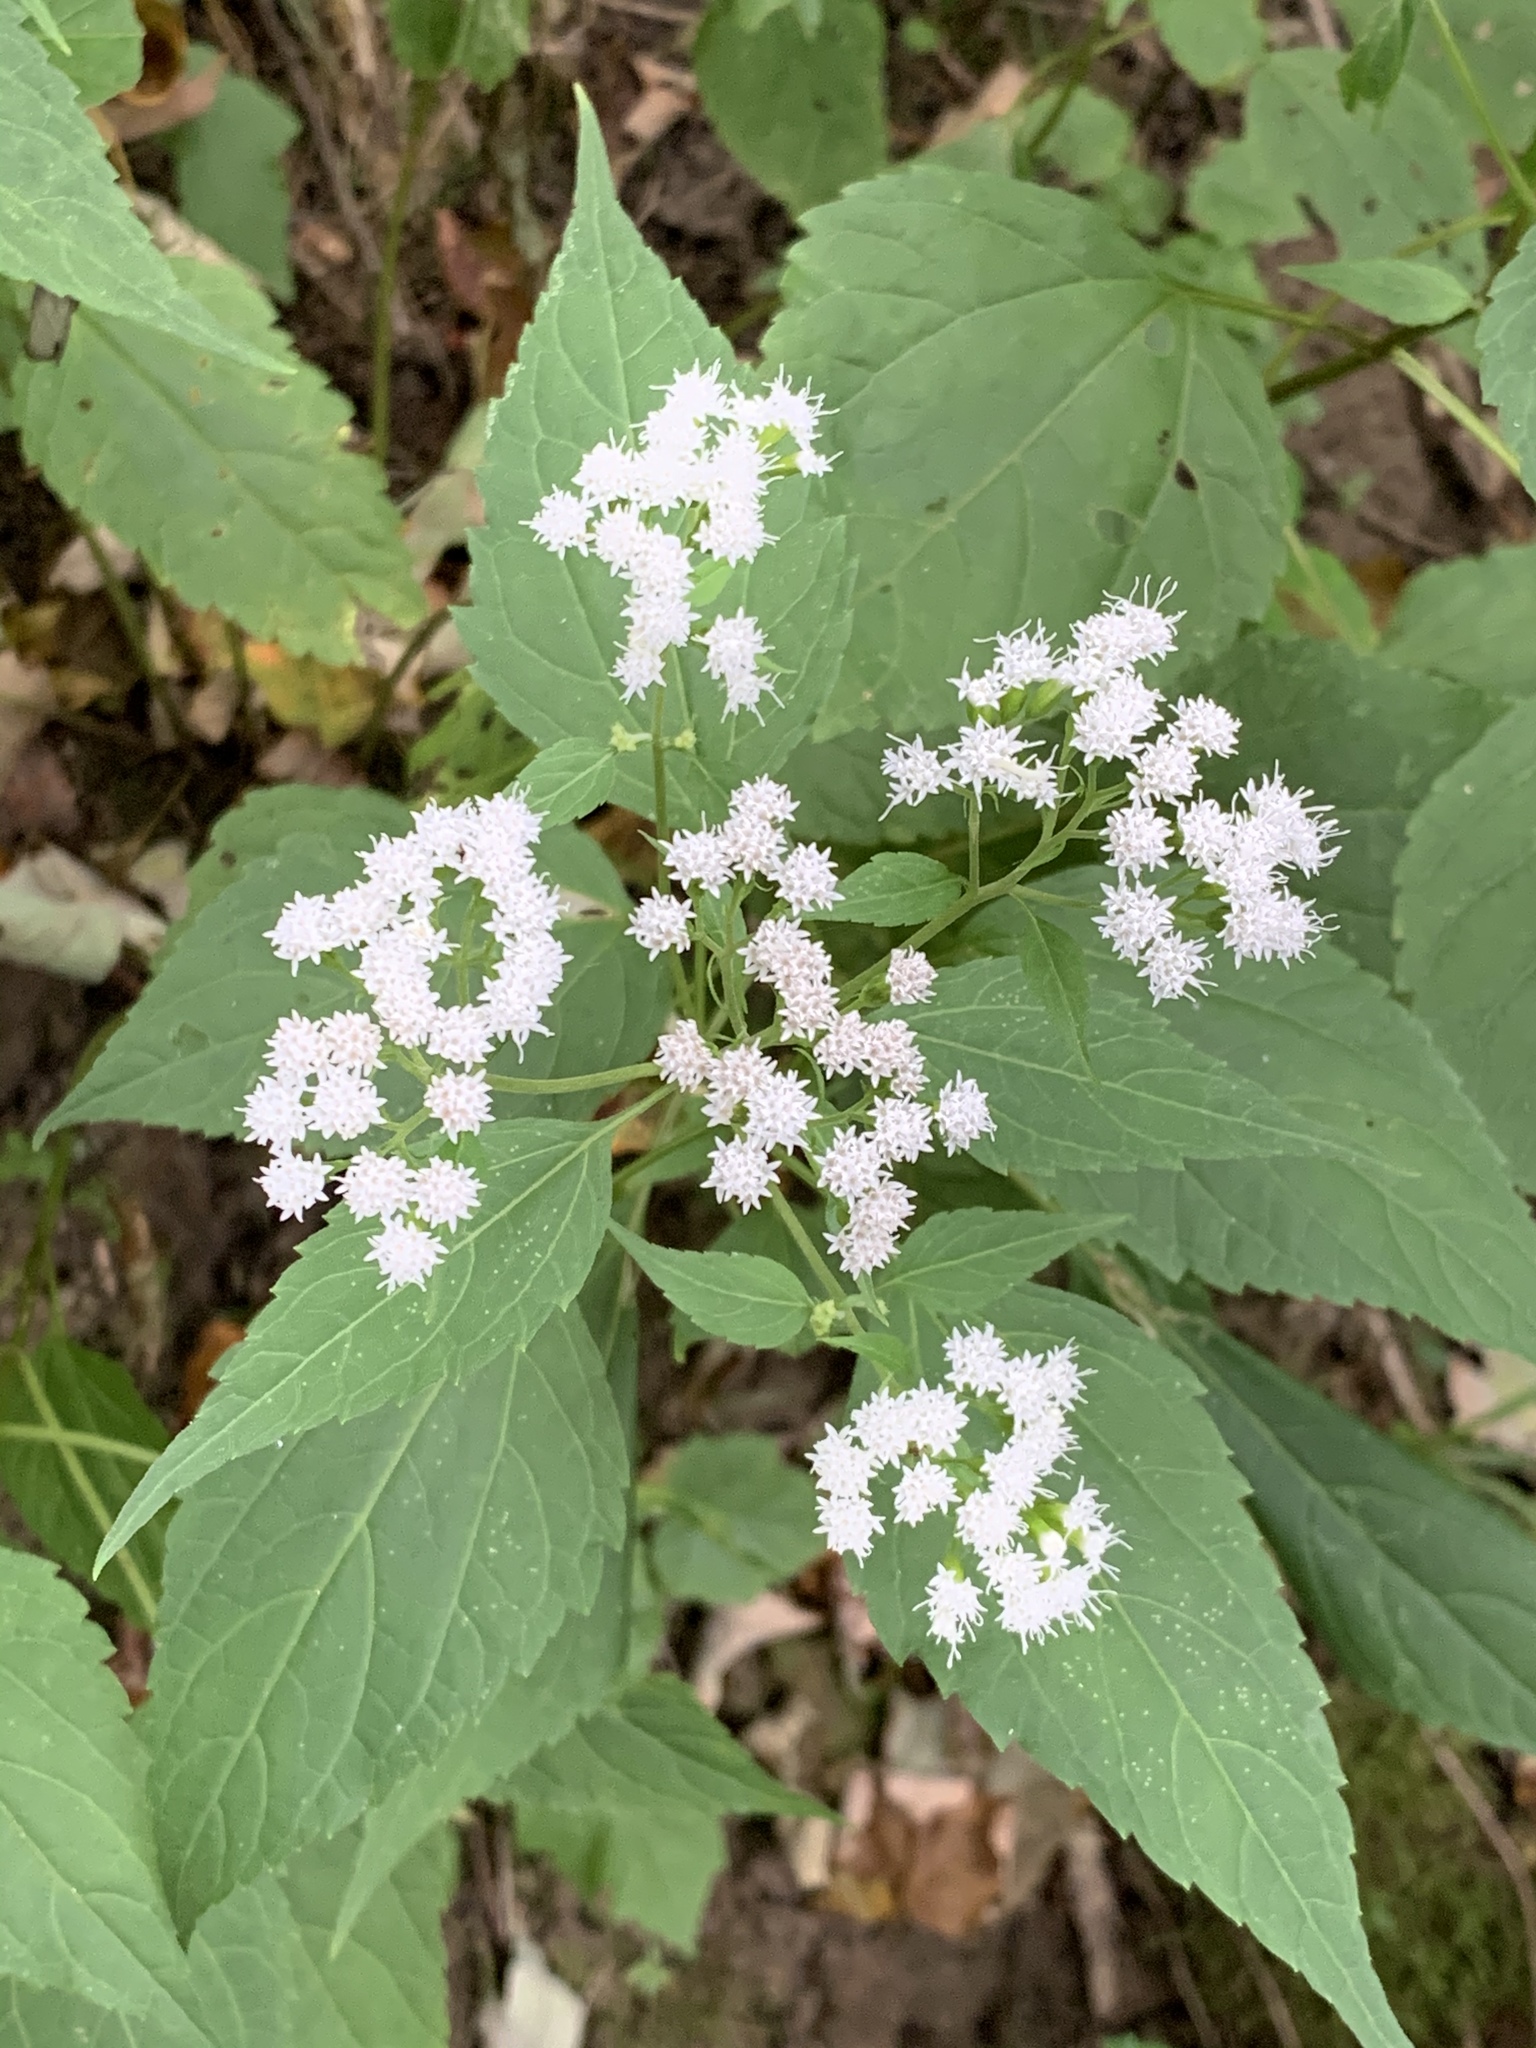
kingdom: Plantae
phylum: Tracheophyta
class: Magnoliopsida
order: Asterales
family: Asteraceae
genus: Ageratina
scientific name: Ageratina altissima
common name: White snakeroot
